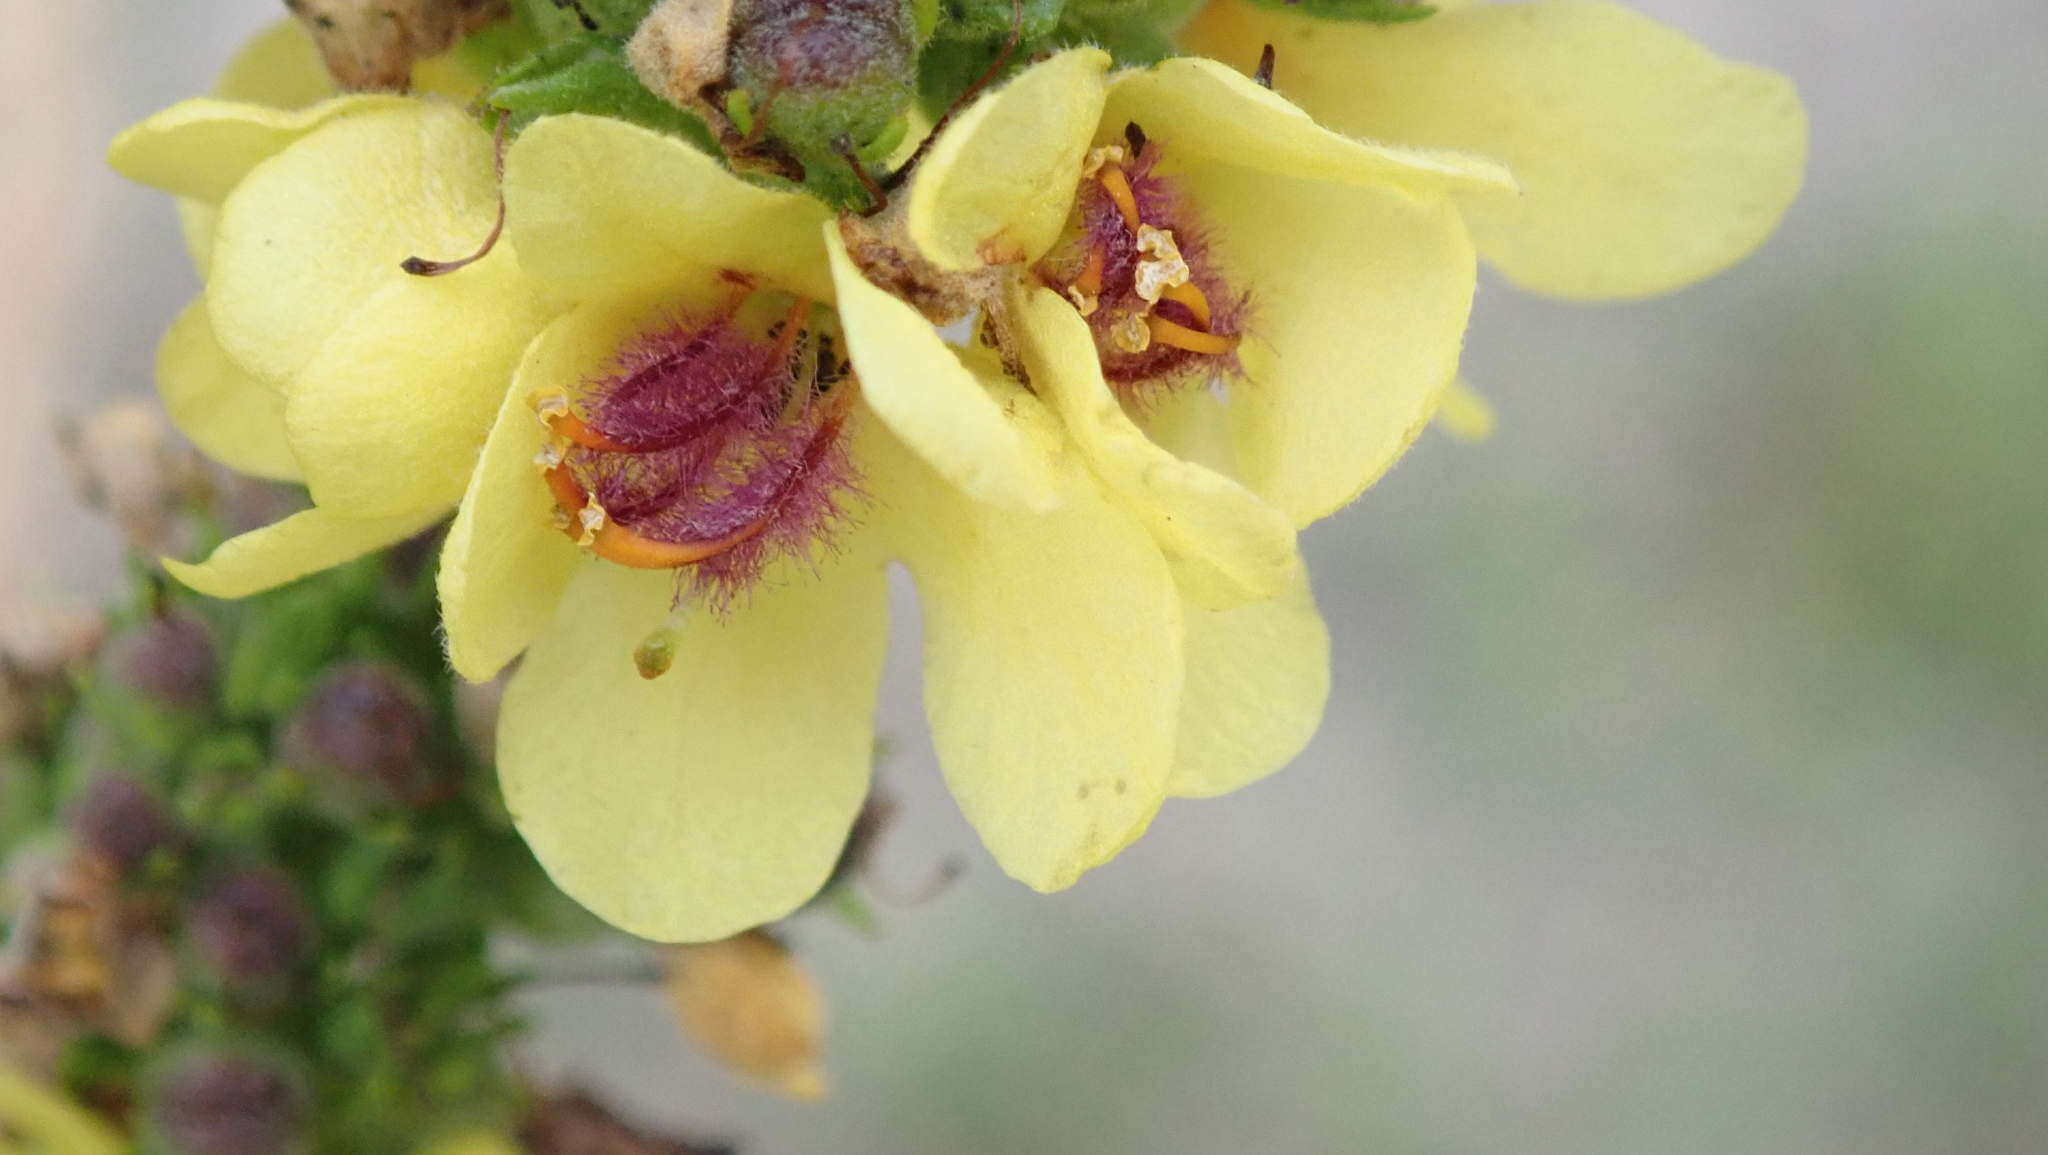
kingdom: Plantae
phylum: Tracheophyta
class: Magnoliopsida
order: Lamiales
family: Scrophulariaceae
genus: Verbascum
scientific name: Verbascum nigrum
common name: Dark mullein
